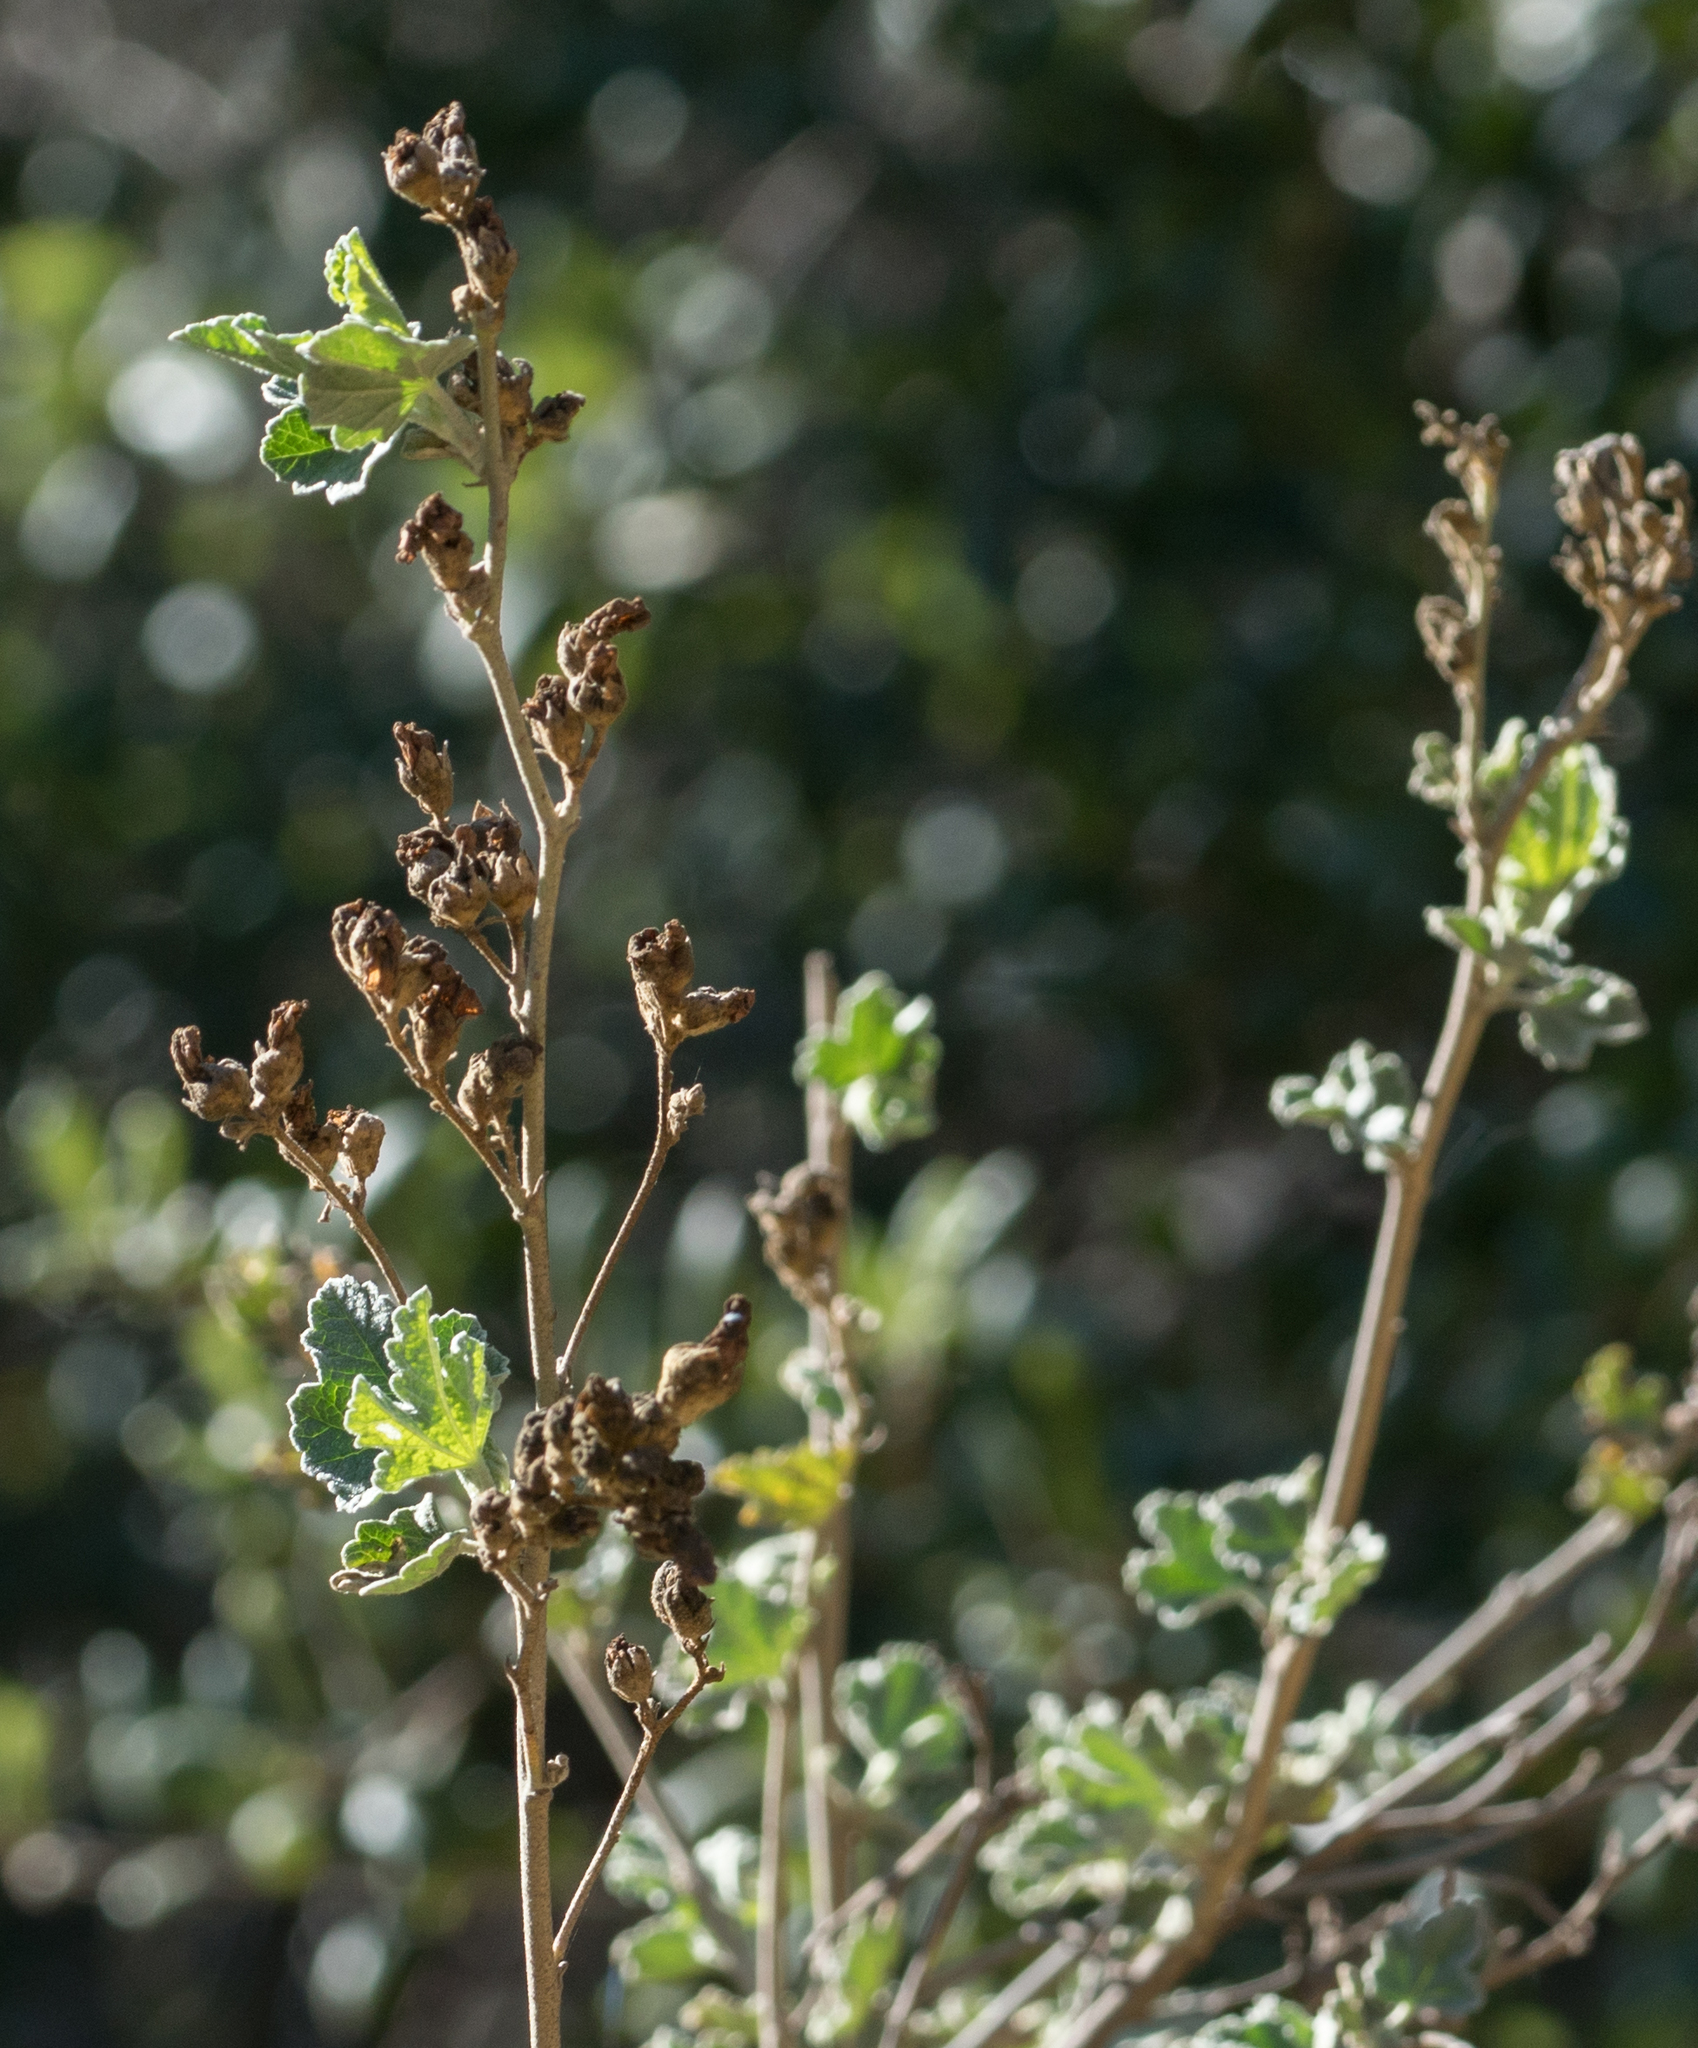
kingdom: Plantae
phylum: Tracheophyta
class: Magnoliopsida
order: Malvales
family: Malvaceae
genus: Malacothamnus
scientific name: Malacothamnus fasciculatus
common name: Sant cruz island bush-mallow
